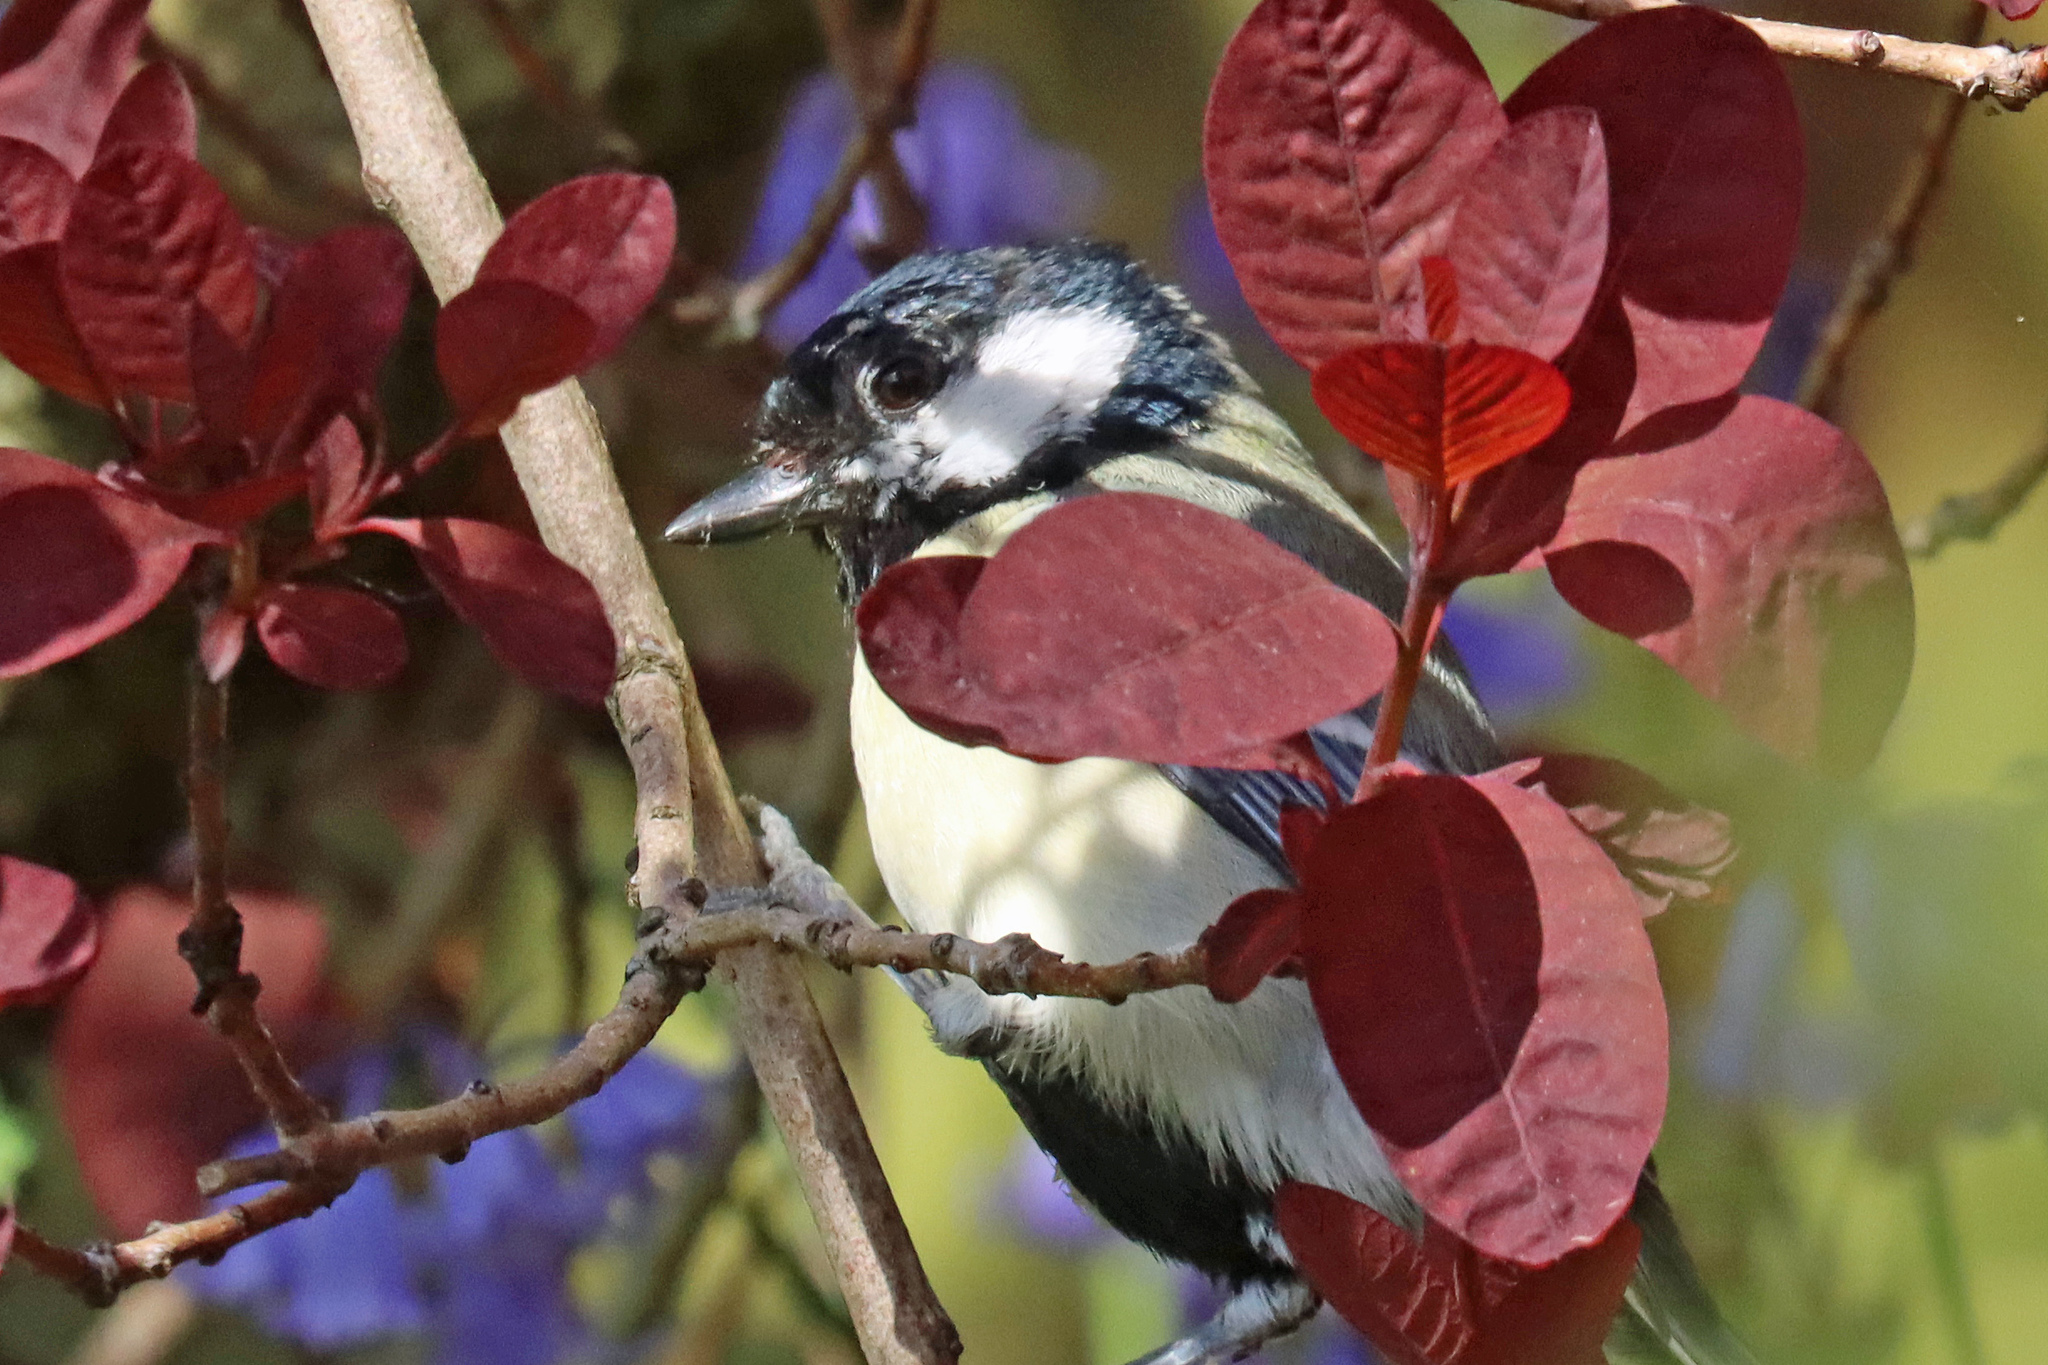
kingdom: Animalia
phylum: Chordata
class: Aves
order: Passeriformes
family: Paridae
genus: Parus
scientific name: Parus major
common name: Great tit
